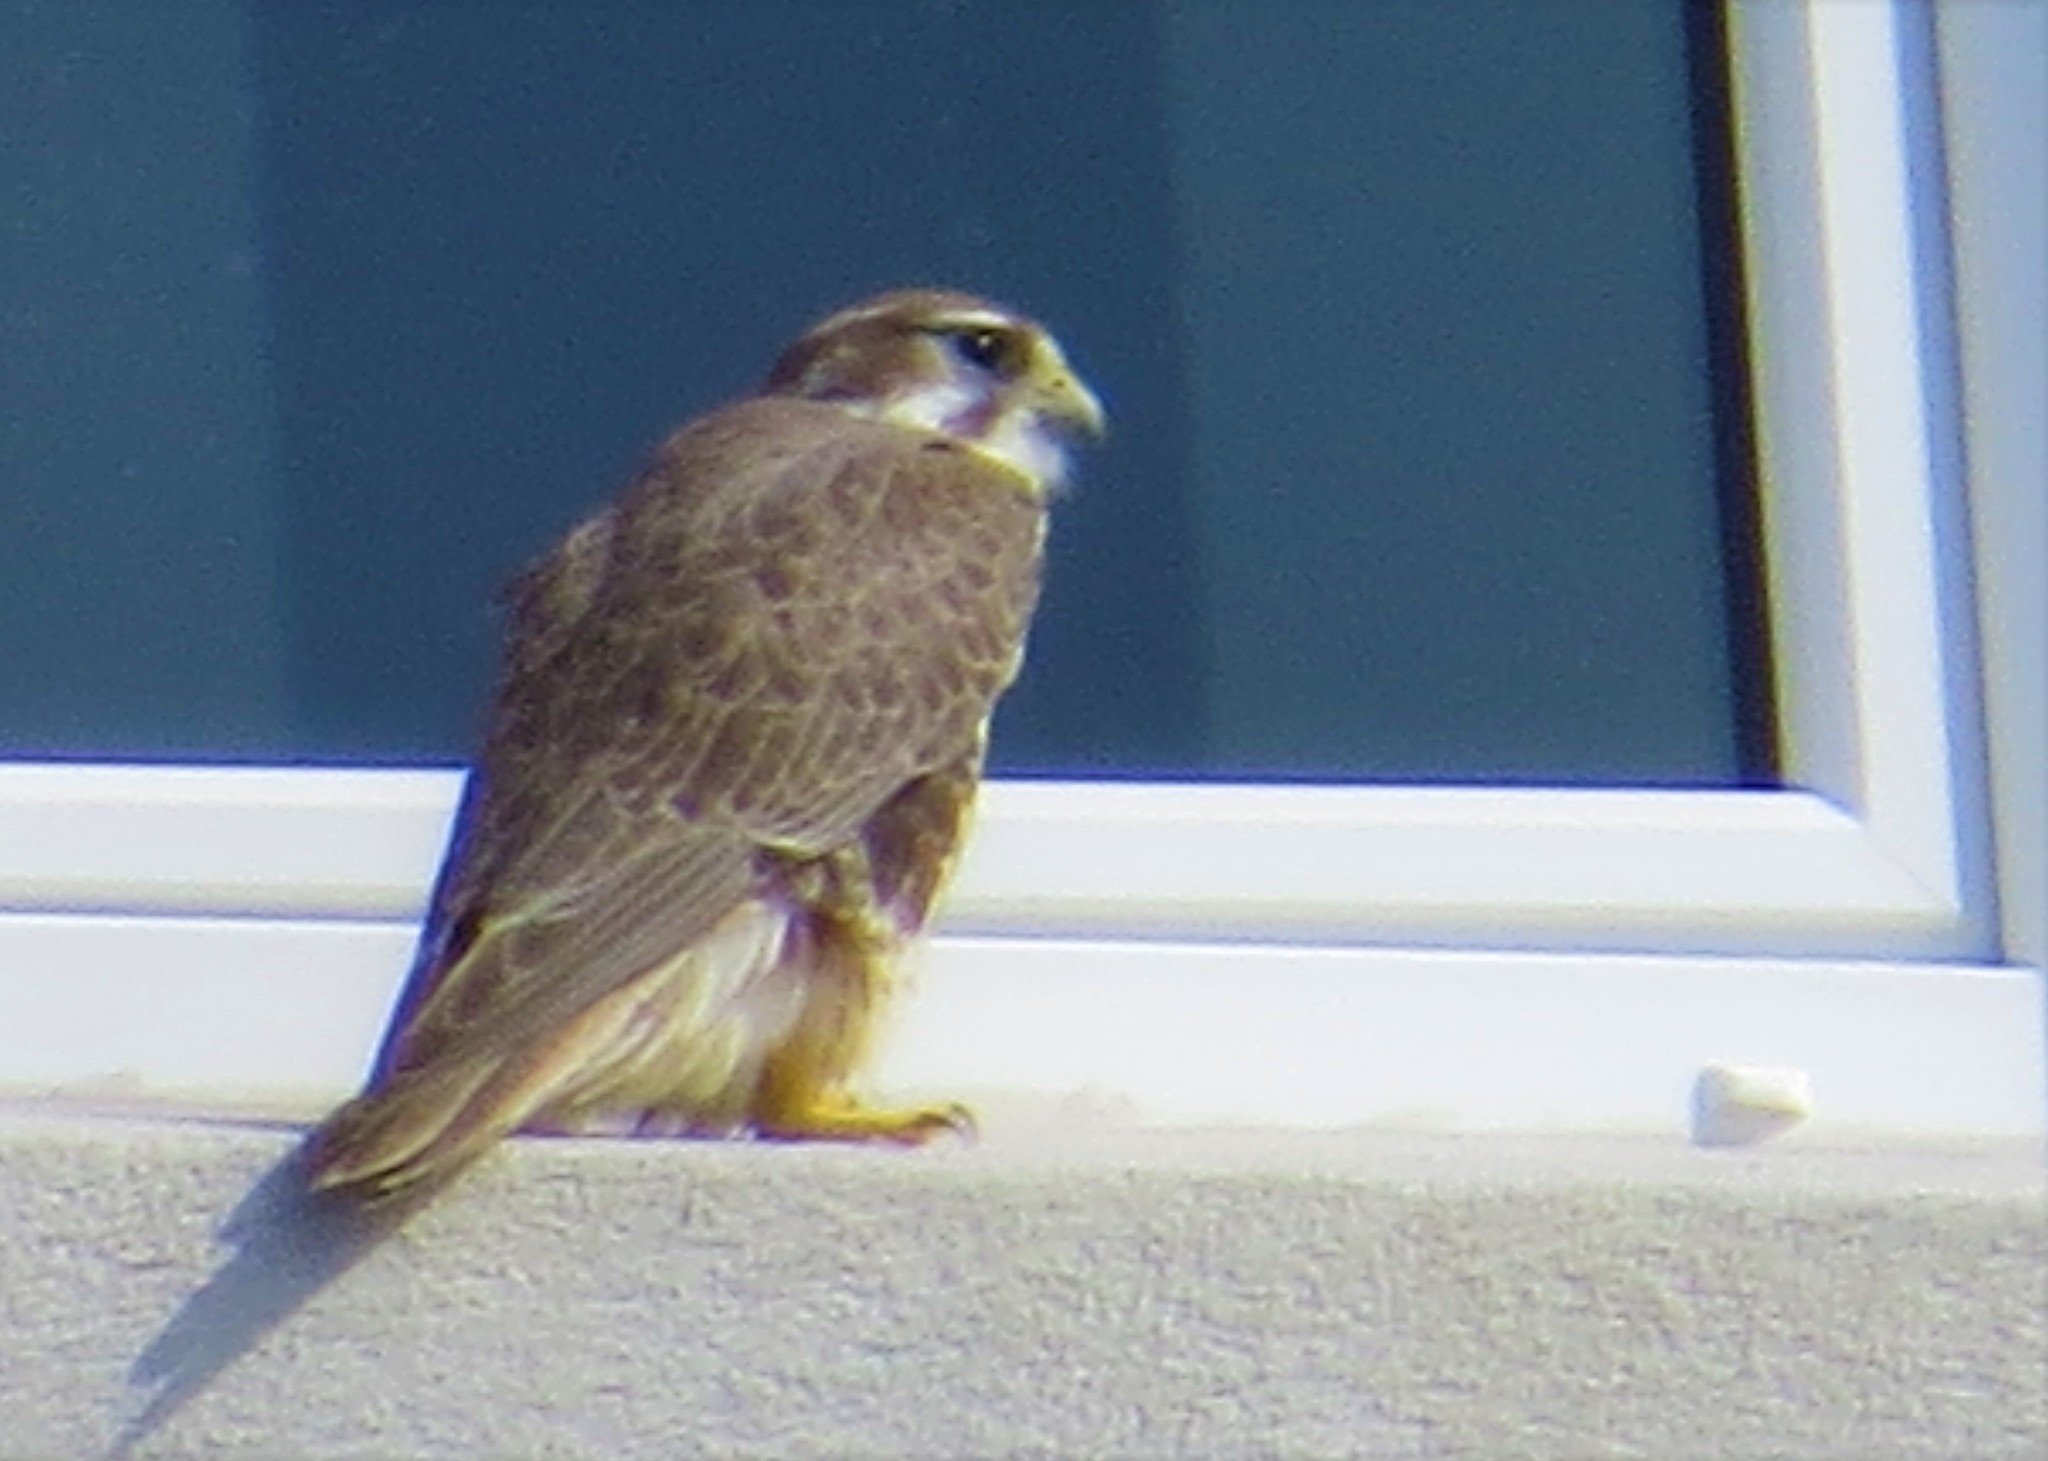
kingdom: Animalia
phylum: Chordata
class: Aves
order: Falconiformes
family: Falconidae
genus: Falco
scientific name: Falco mexicanus
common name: Prairie falcon
